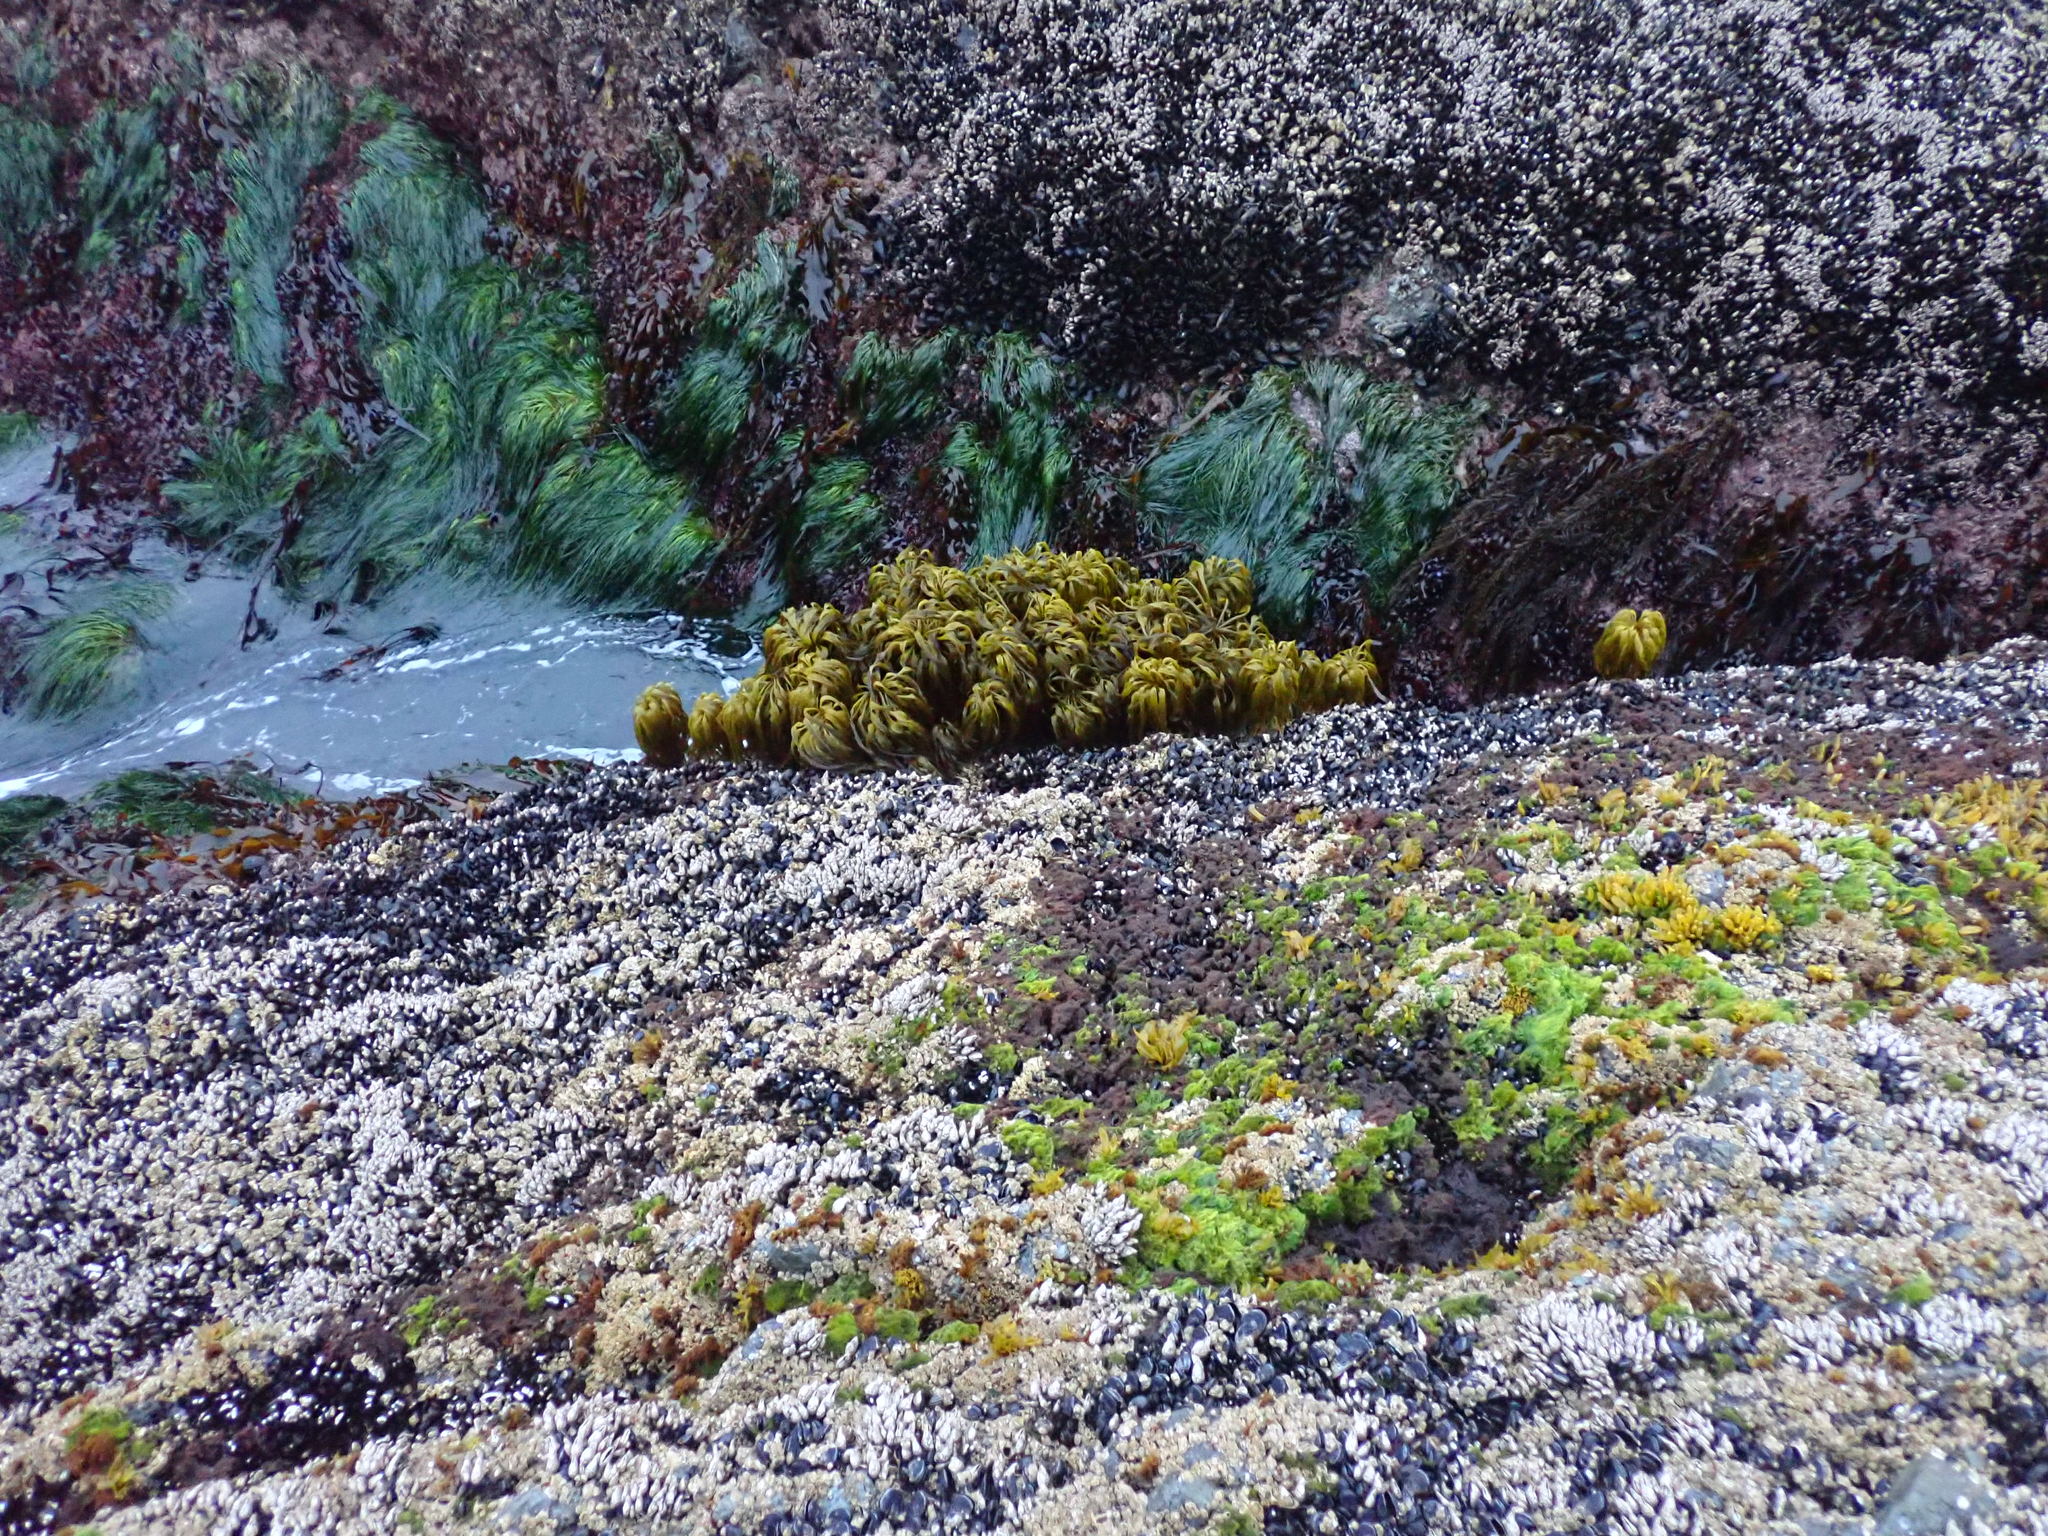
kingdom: Chromista
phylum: Ochrophyta
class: Phaeophyceae
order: Laminariales
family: Laminariaceae
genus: Postelsia
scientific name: Postelsia palmiformis
